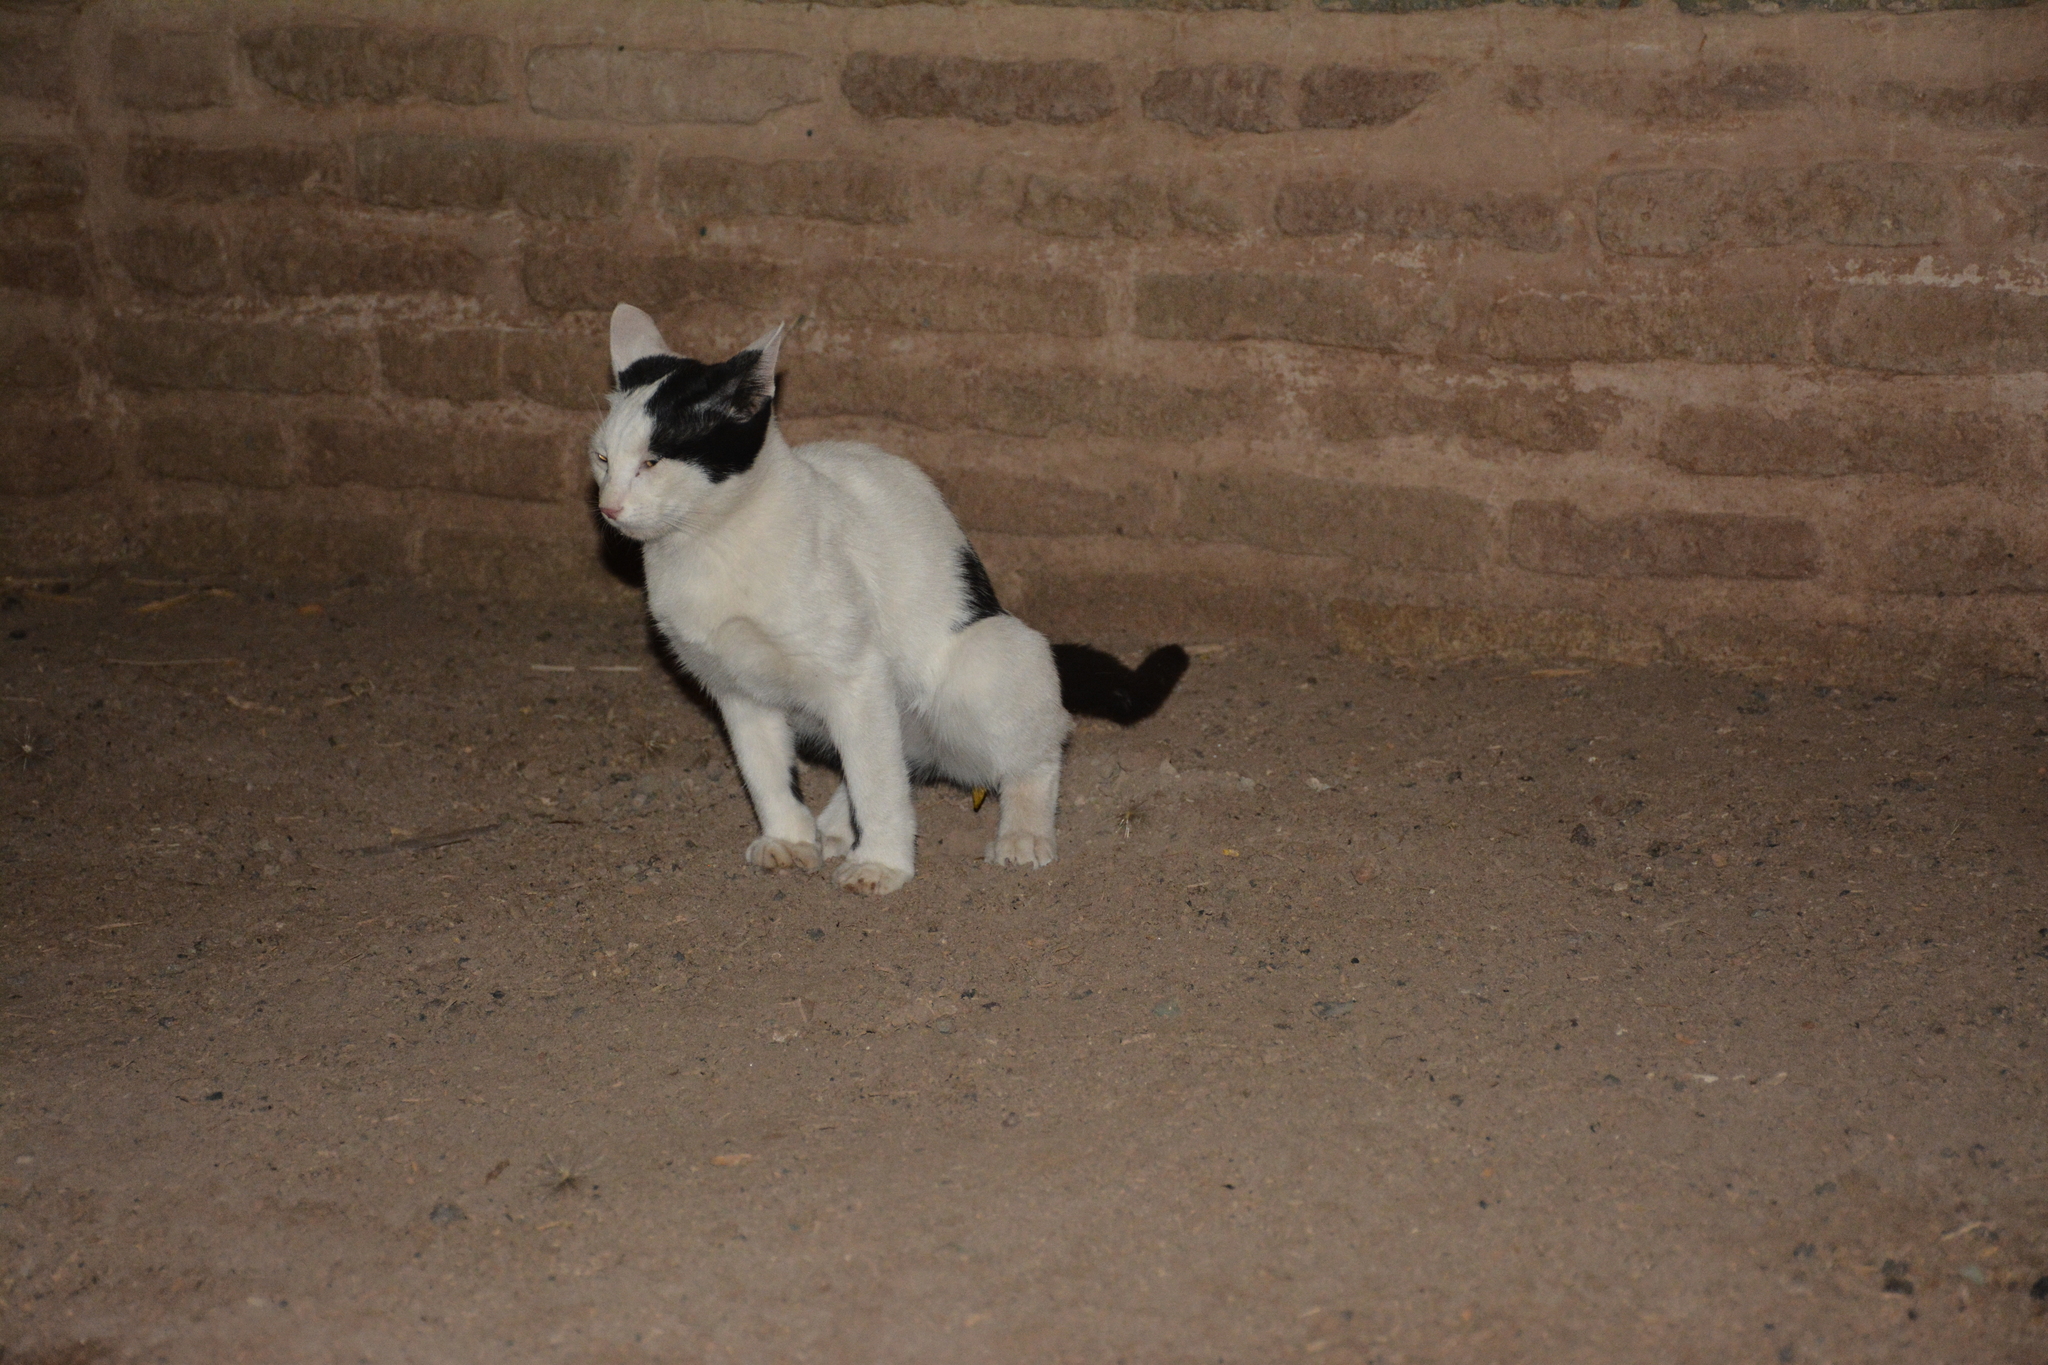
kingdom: Animalia
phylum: Chordata
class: Mammalia
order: Carnivora
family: Felidae
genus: Felis
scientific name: Felis catus
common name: Domestic cat
